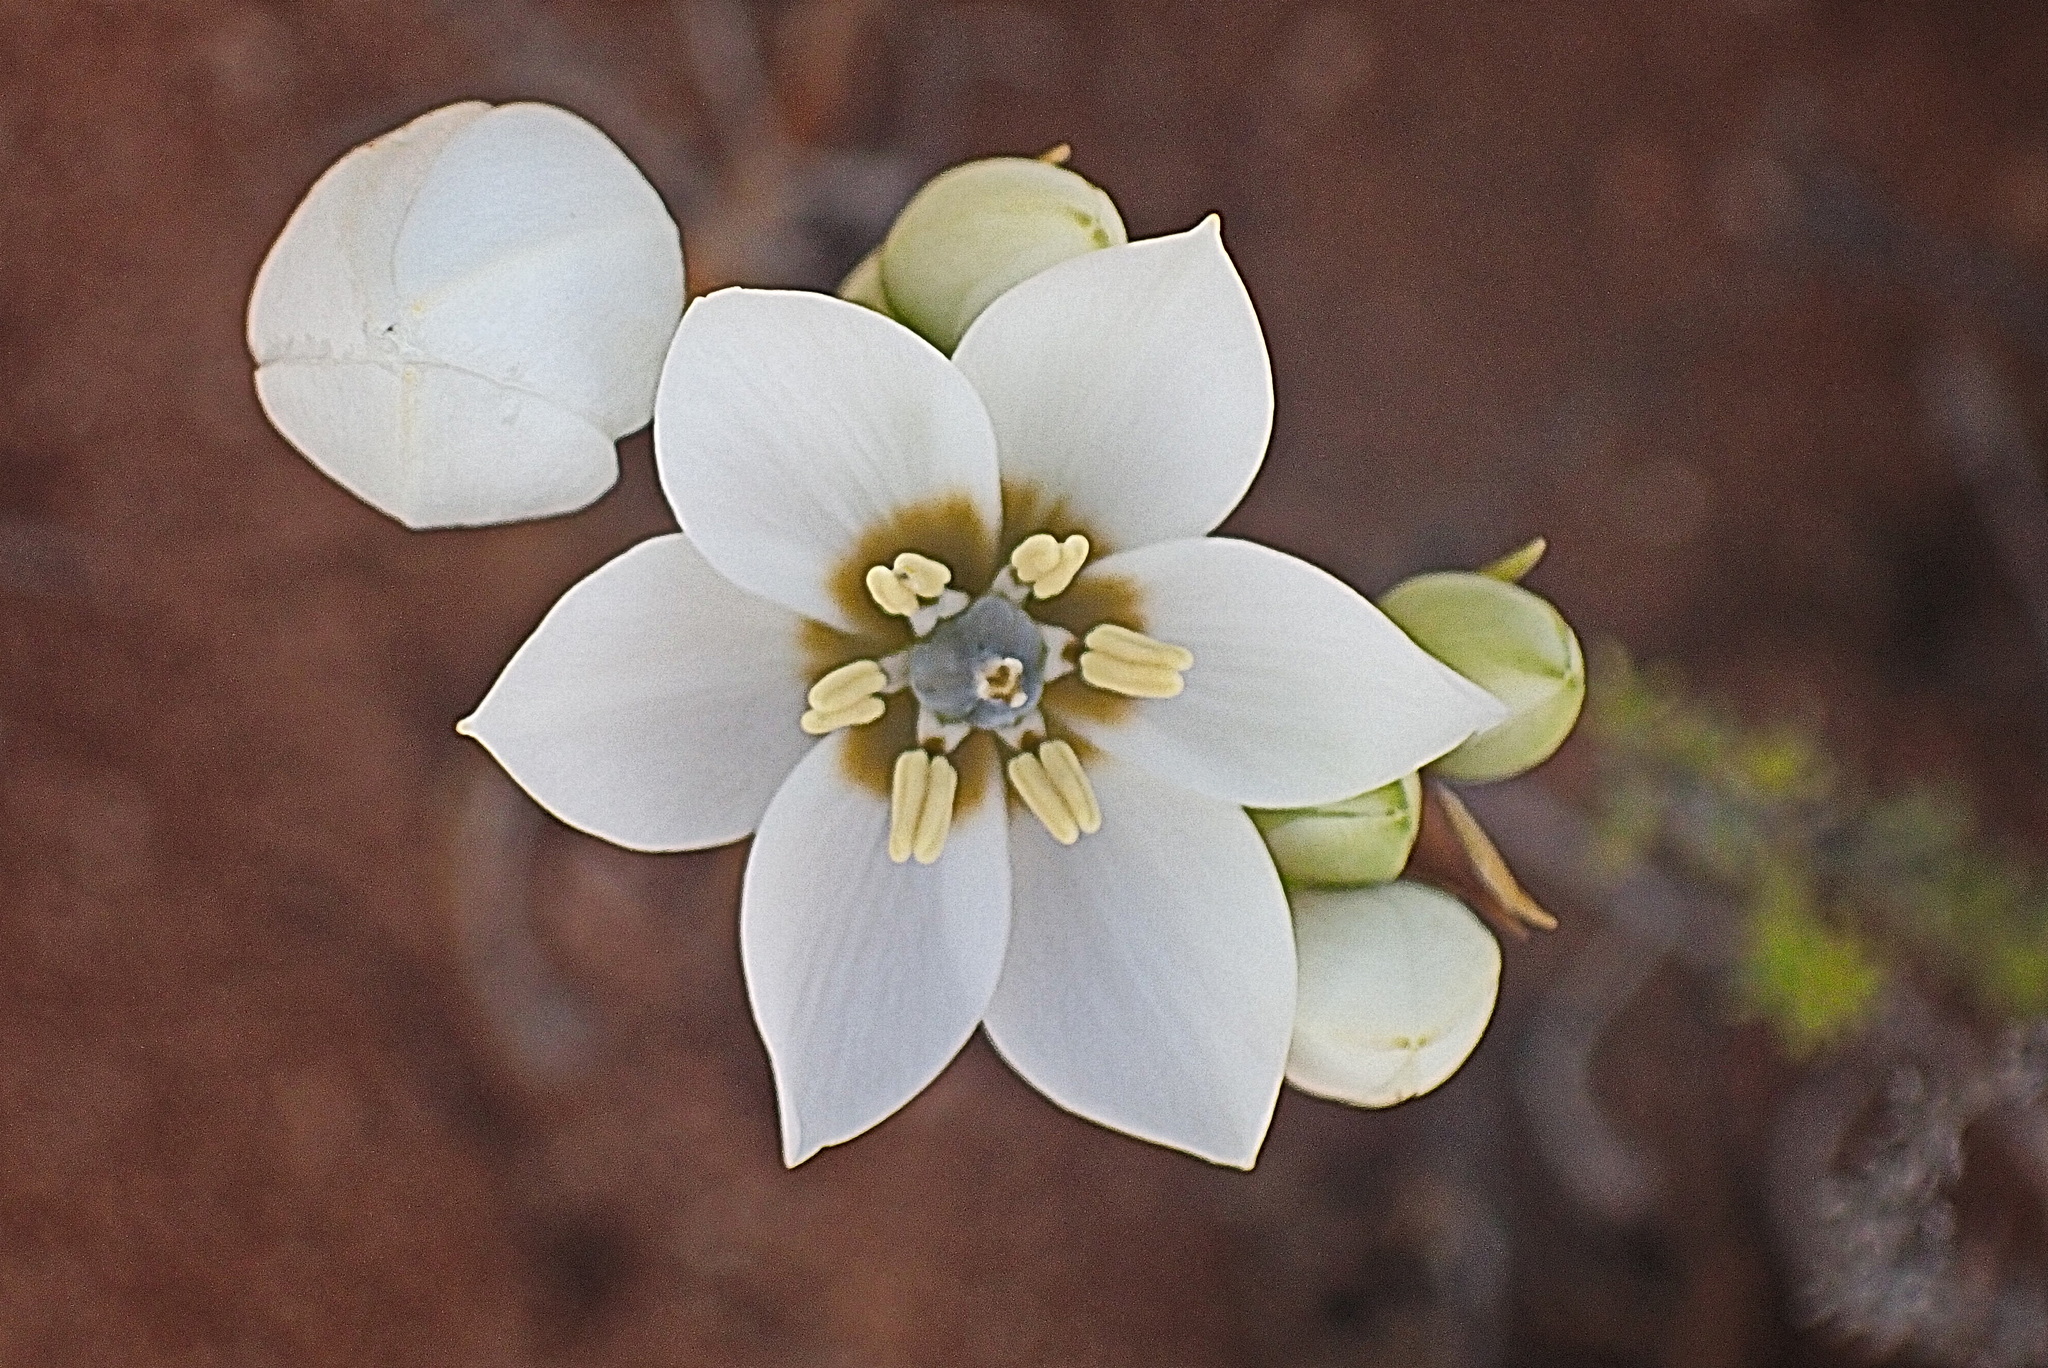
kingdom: Plantae
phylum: Tracheophyta
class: Liliopsida
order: Asparagales
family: Asparagaceae
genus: Ornithogalum
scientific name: Ornithogalum dubium
